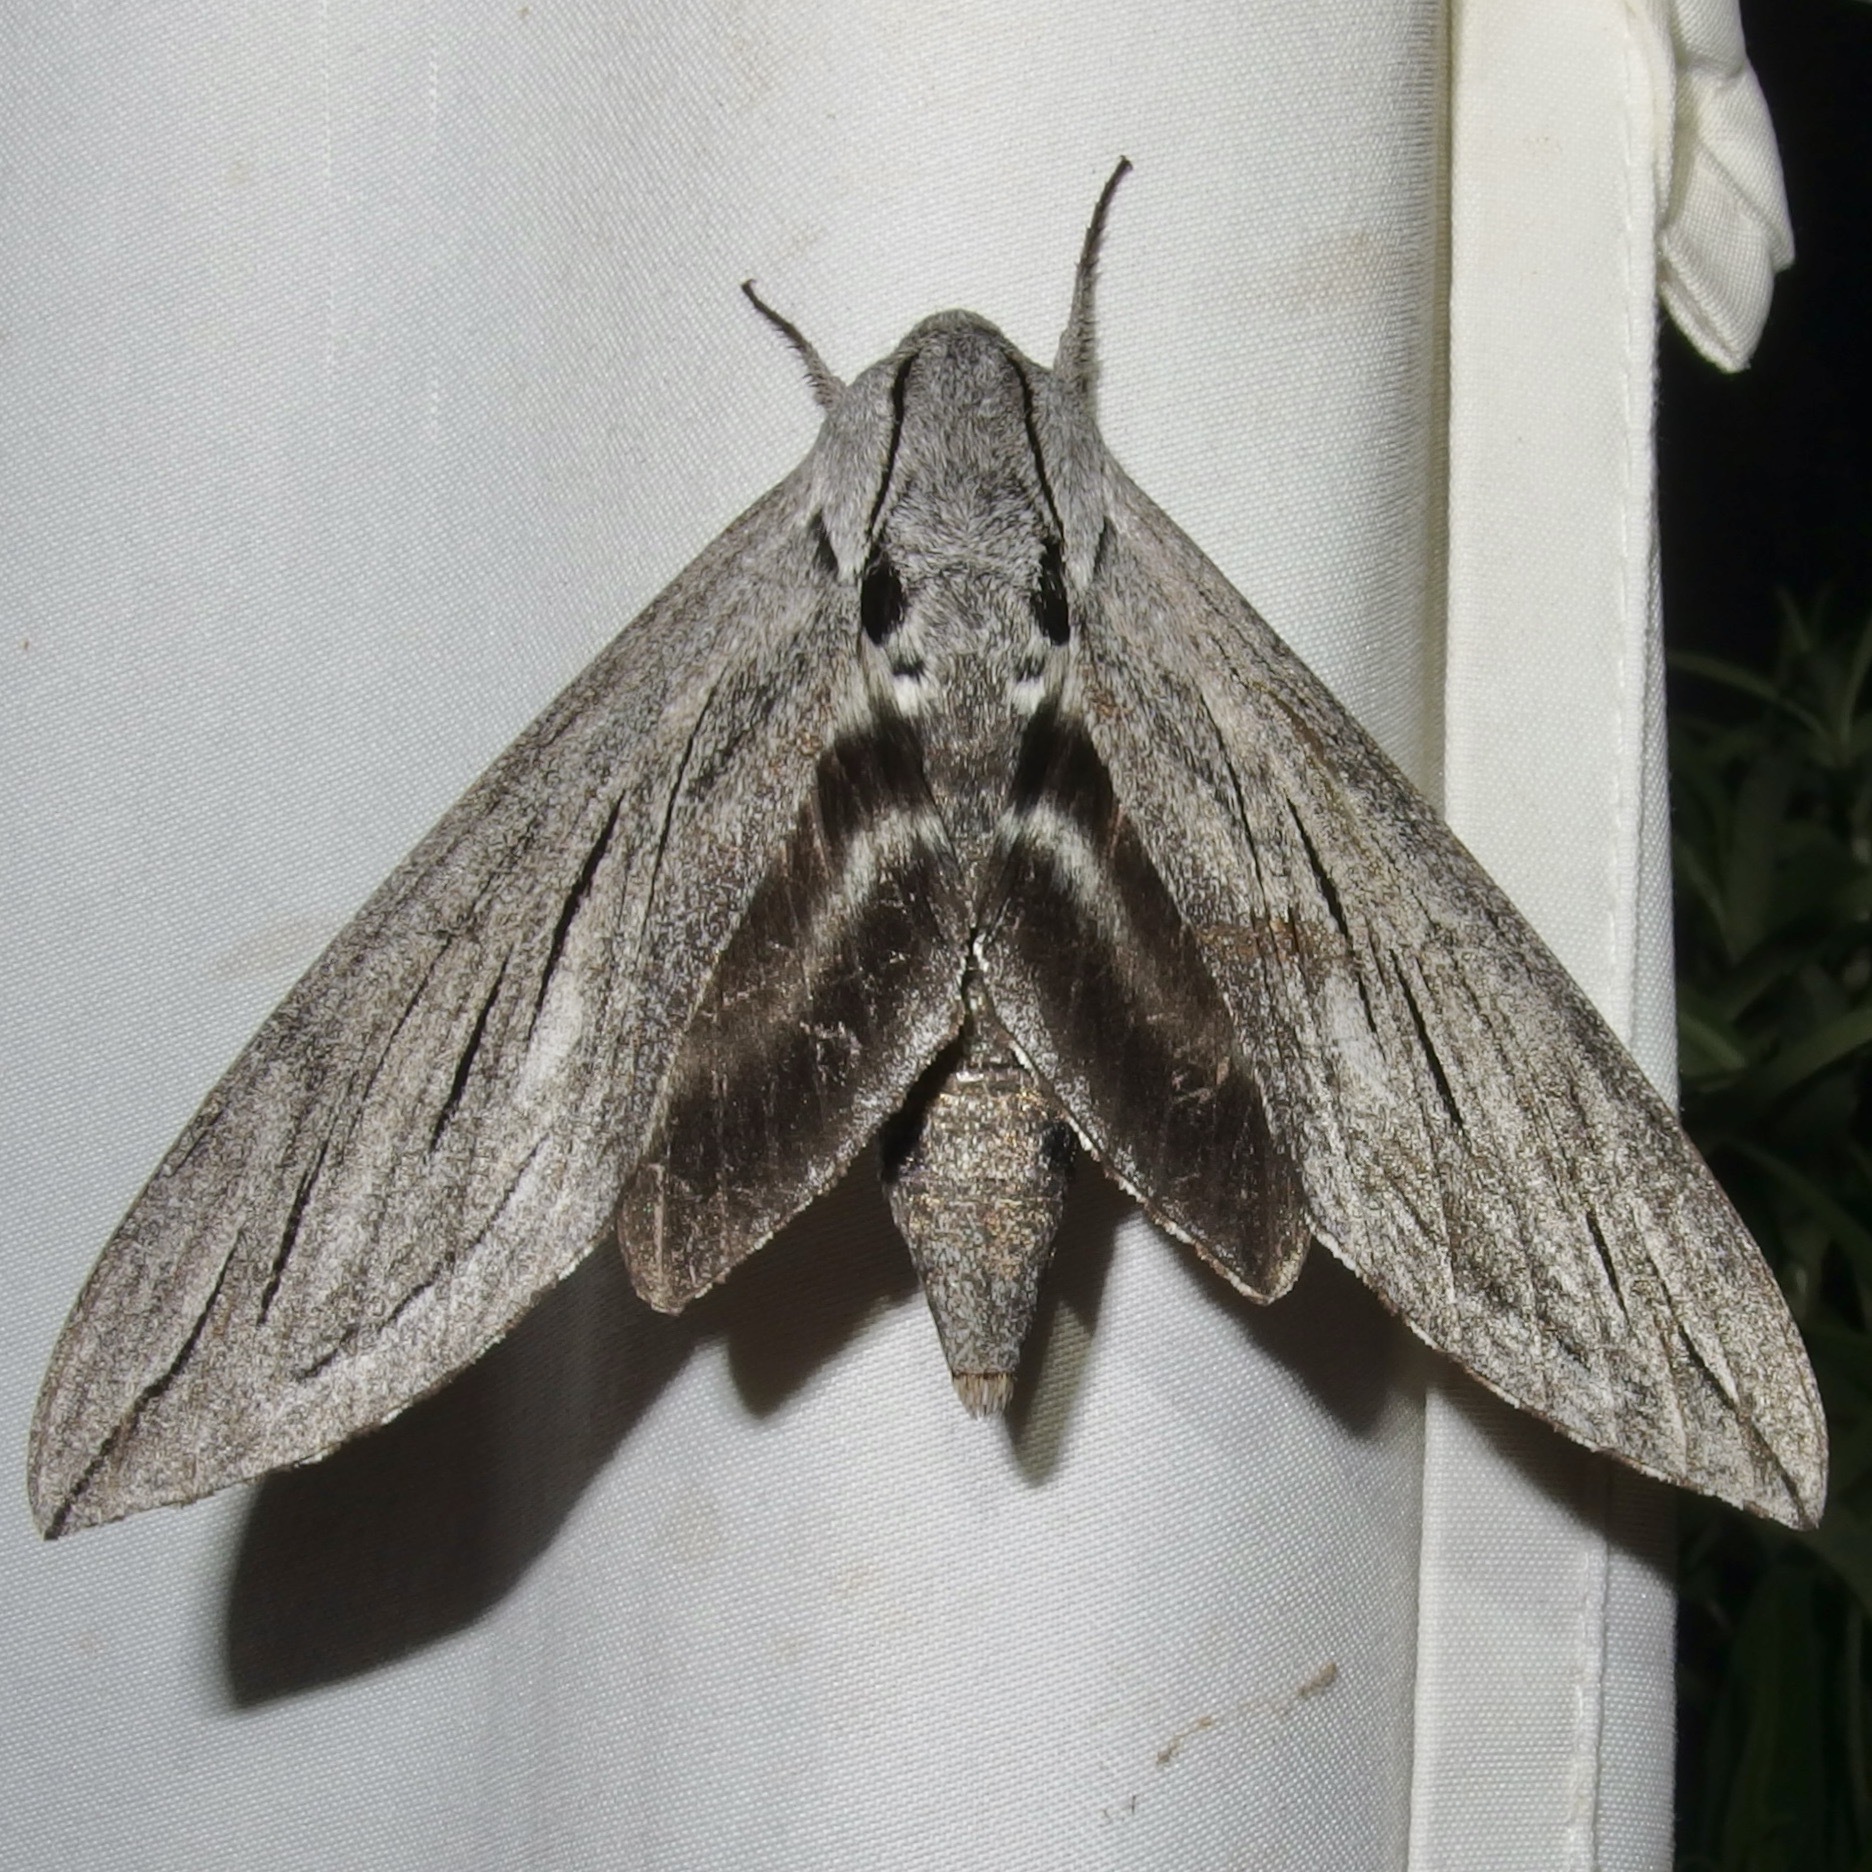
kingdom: Animalia
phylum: Arthropoda
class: Insecta
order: Lepidoptera
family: Sphingidae
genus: Sphinx
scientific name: Sphinx chersis
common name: Great ash sphinx
